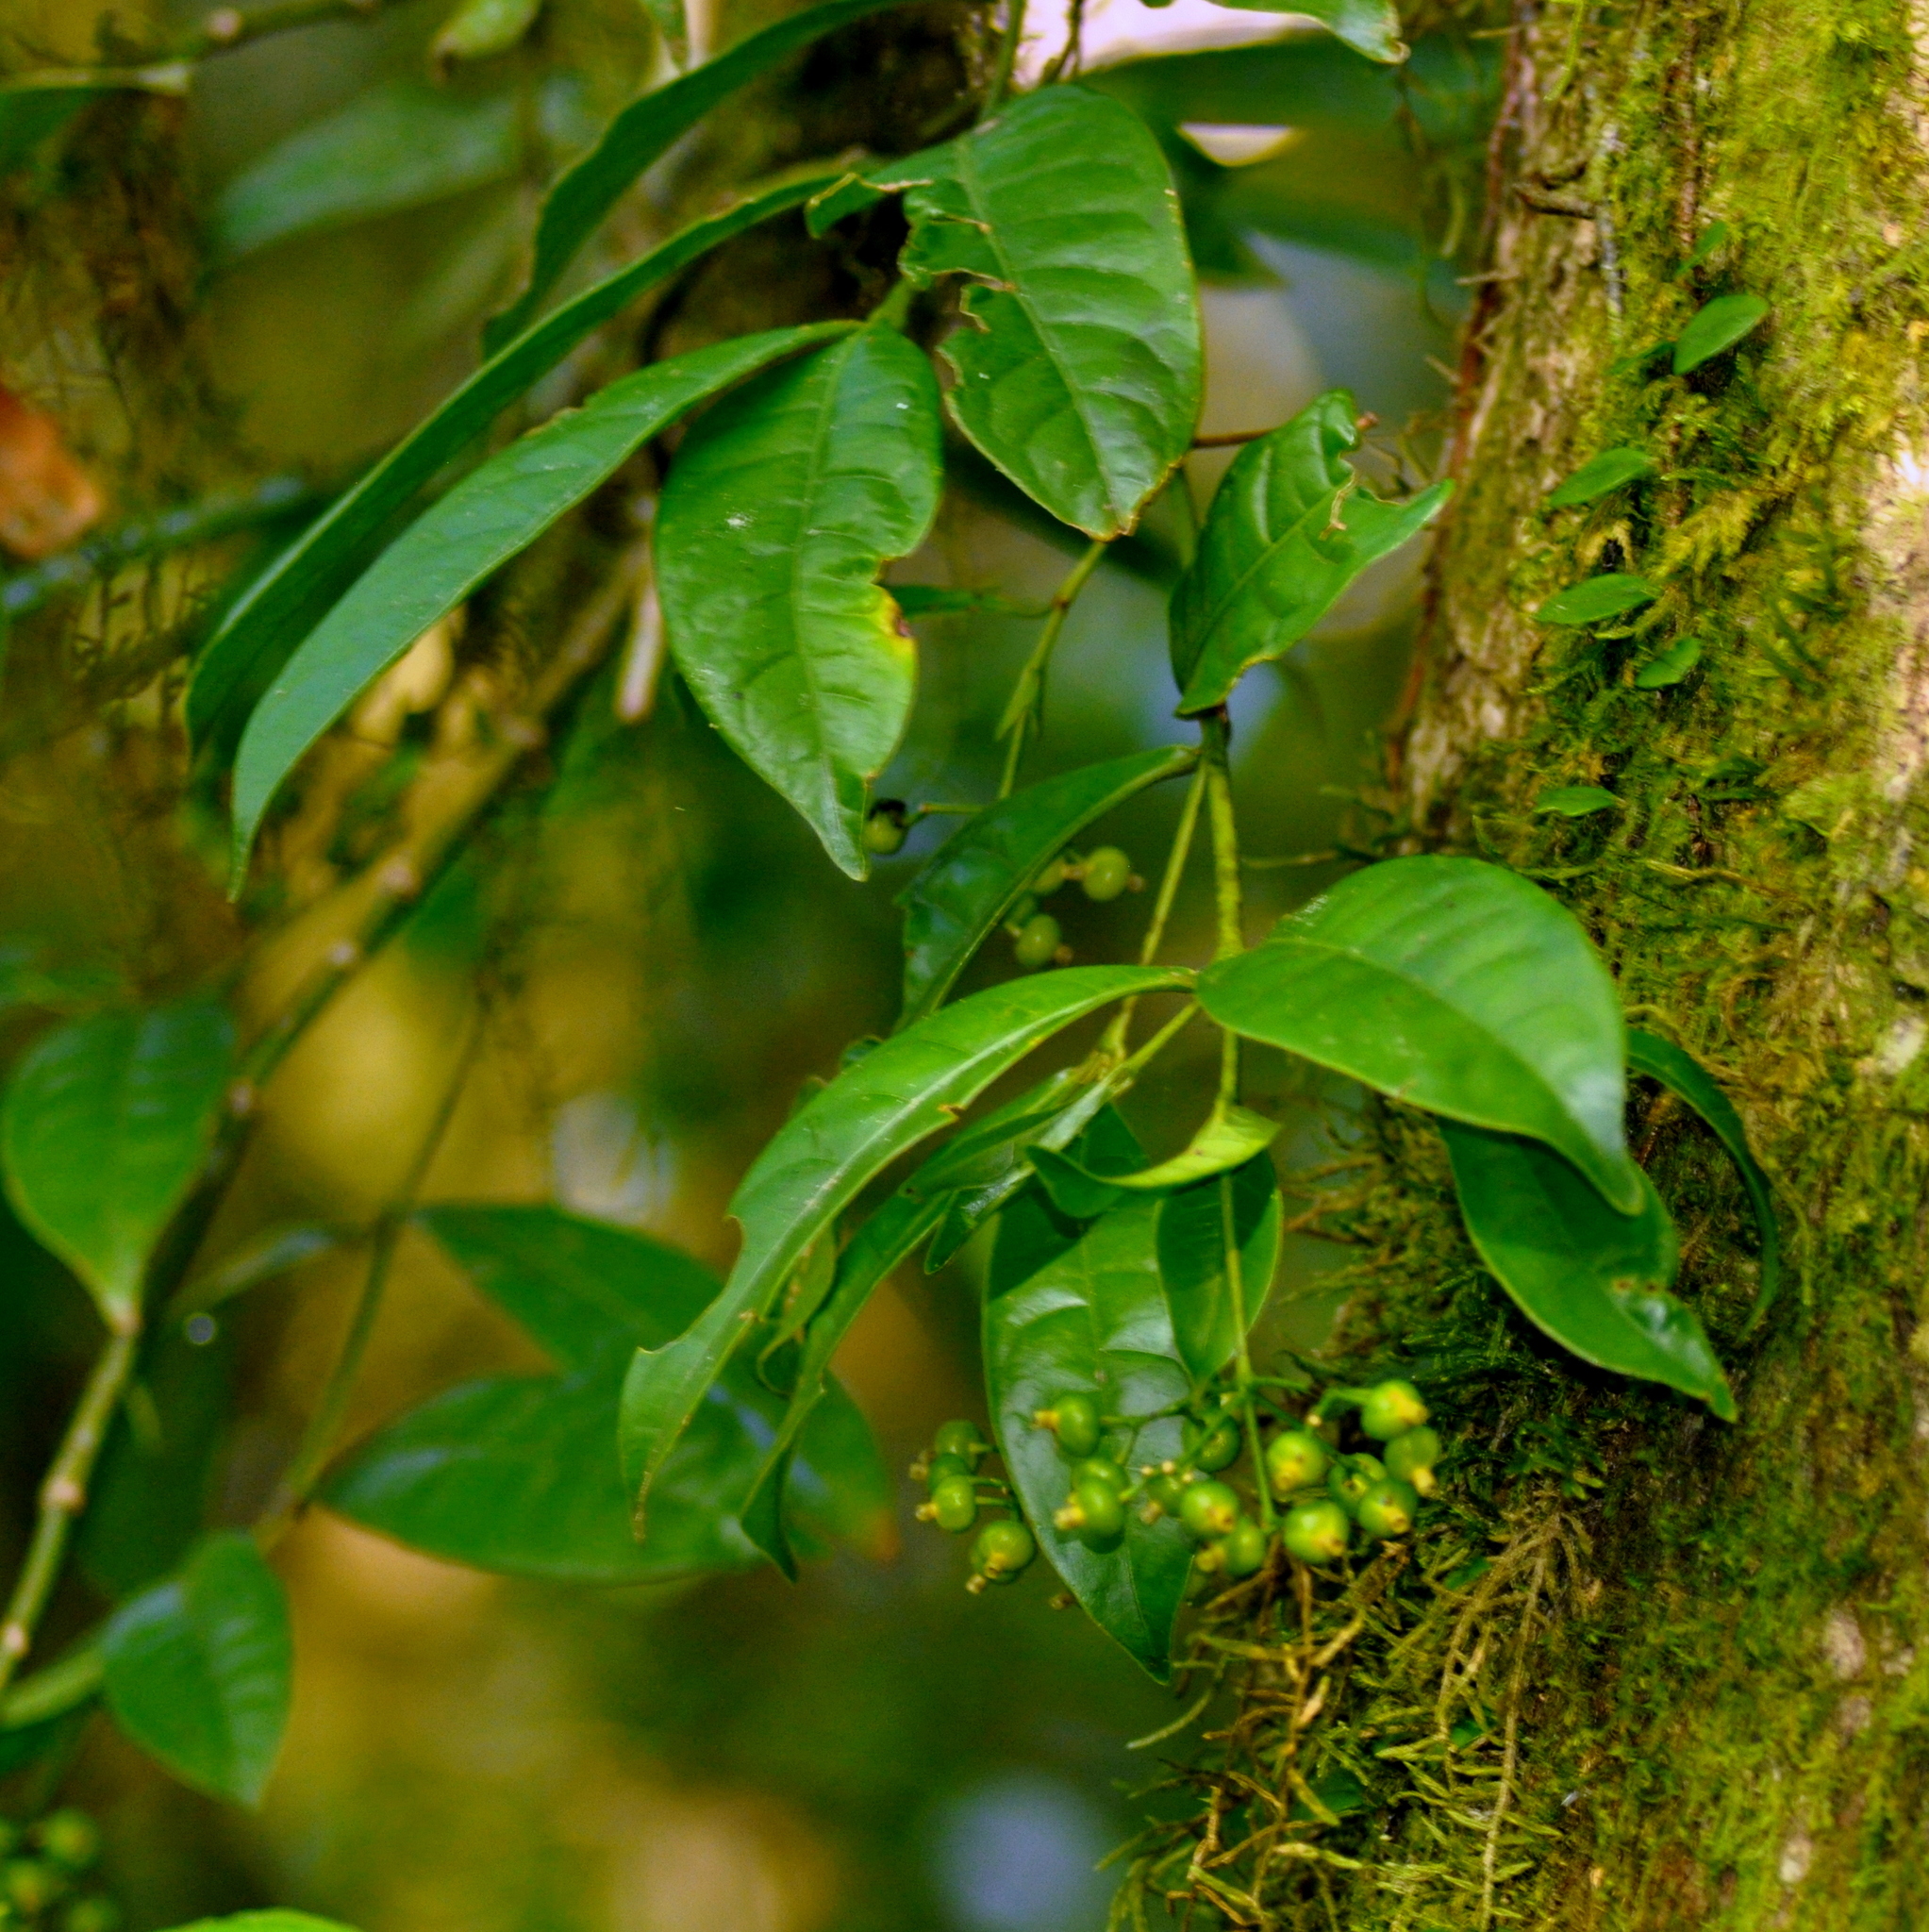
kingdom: Plantae
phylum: Tracheophyta
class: Magnoliopsida
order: Gentianales
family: Rubiaceae
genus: Faramea
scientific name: Faramea montevidensis
